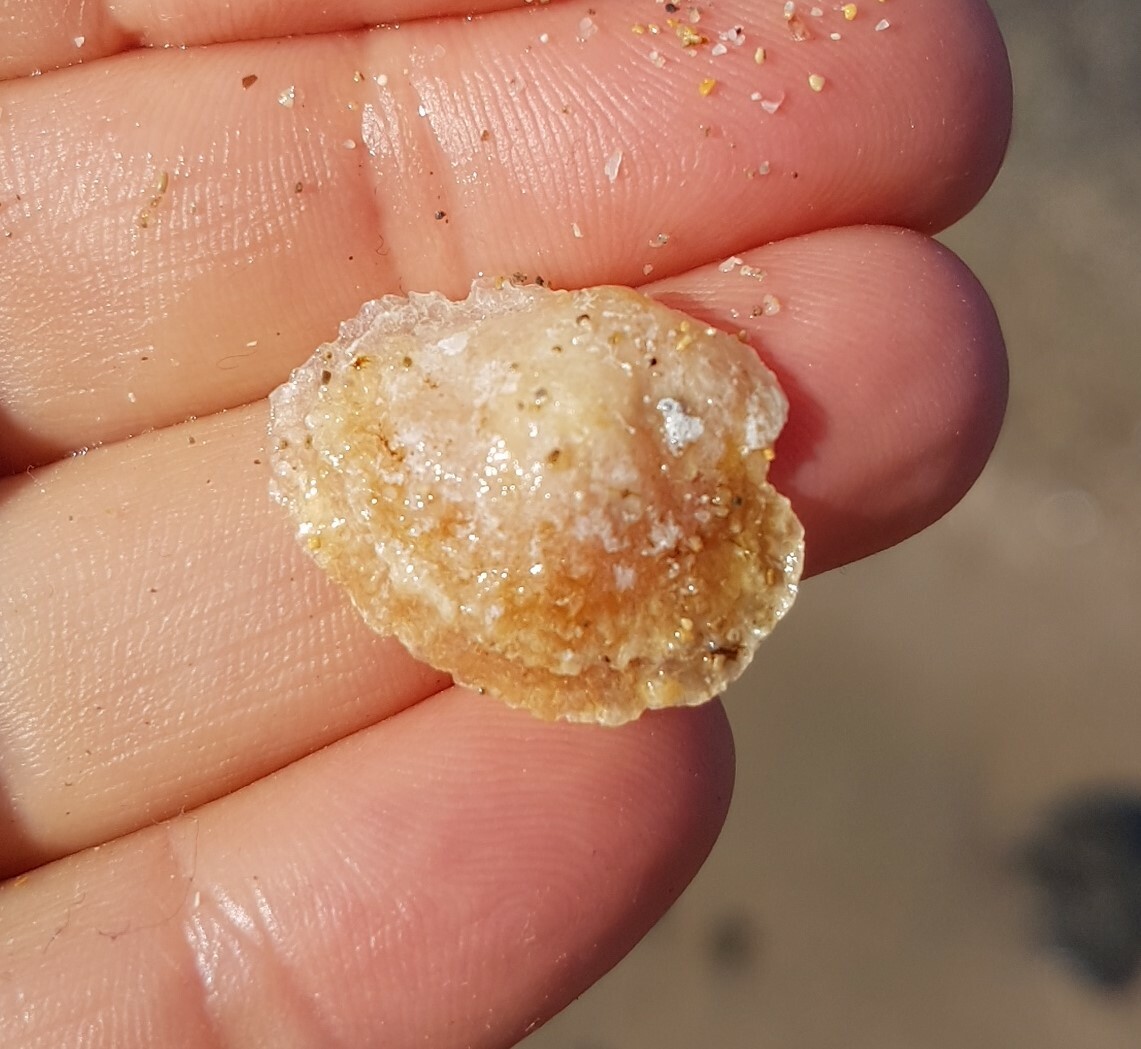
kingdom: Animalia
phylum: Mollusca
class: Bivalvia
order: Pectinida
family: Anomiidae
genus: Anomia
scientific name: Anomia ephippium
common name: Saddle oyster
